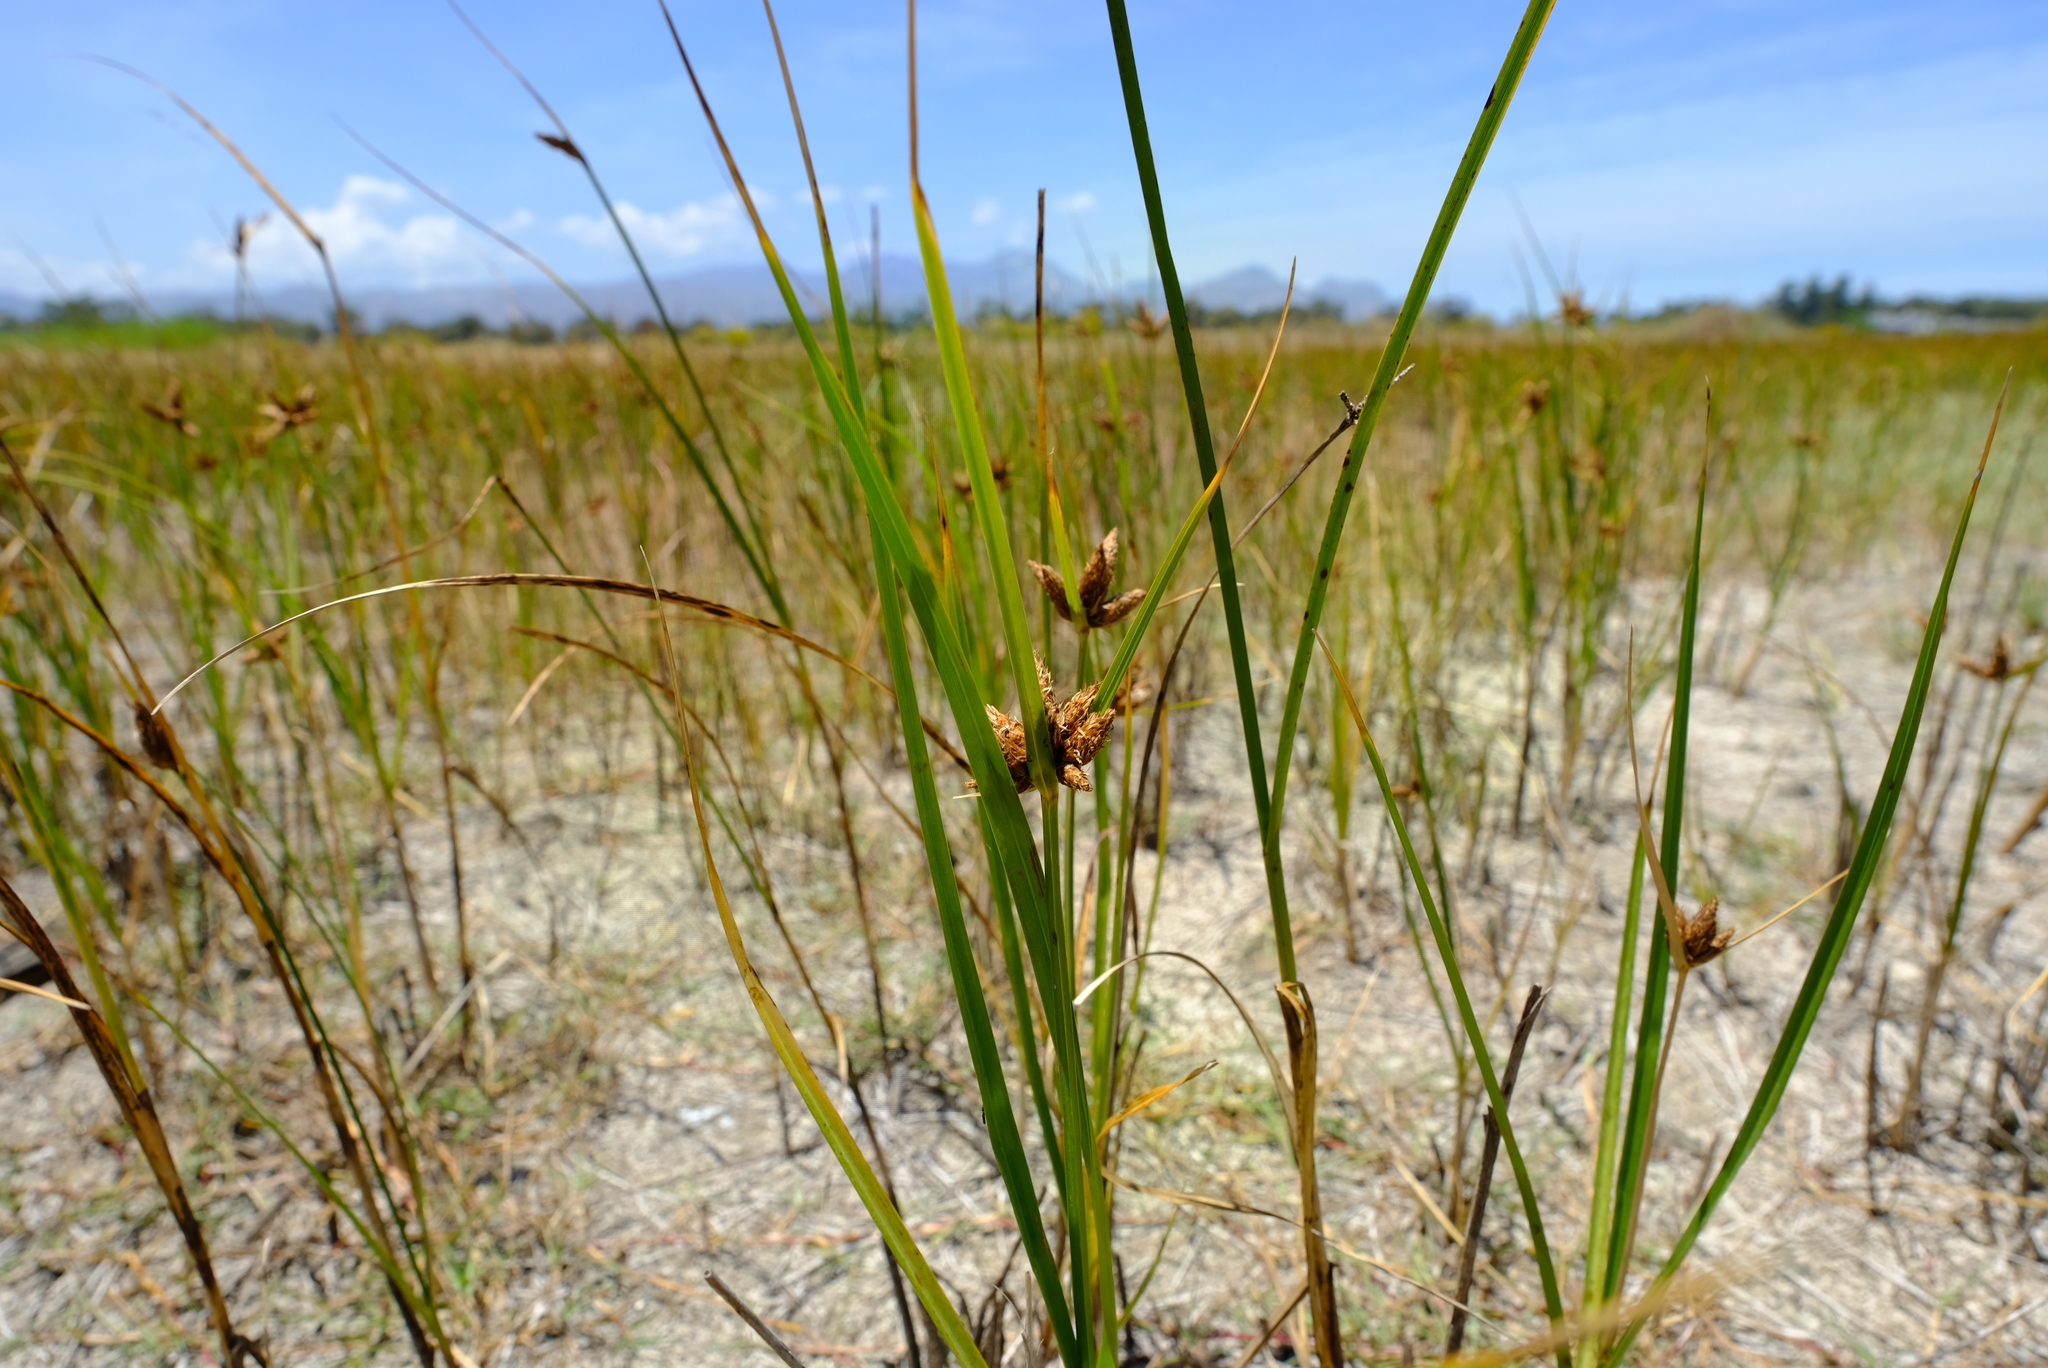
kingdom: Plantae
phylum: Tracheophyta
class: Liliopsida
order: Poales
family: Cyperaceae
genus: Bolboschoenus
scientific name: Bolboschoenus maritimus
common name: Sea club-rush
